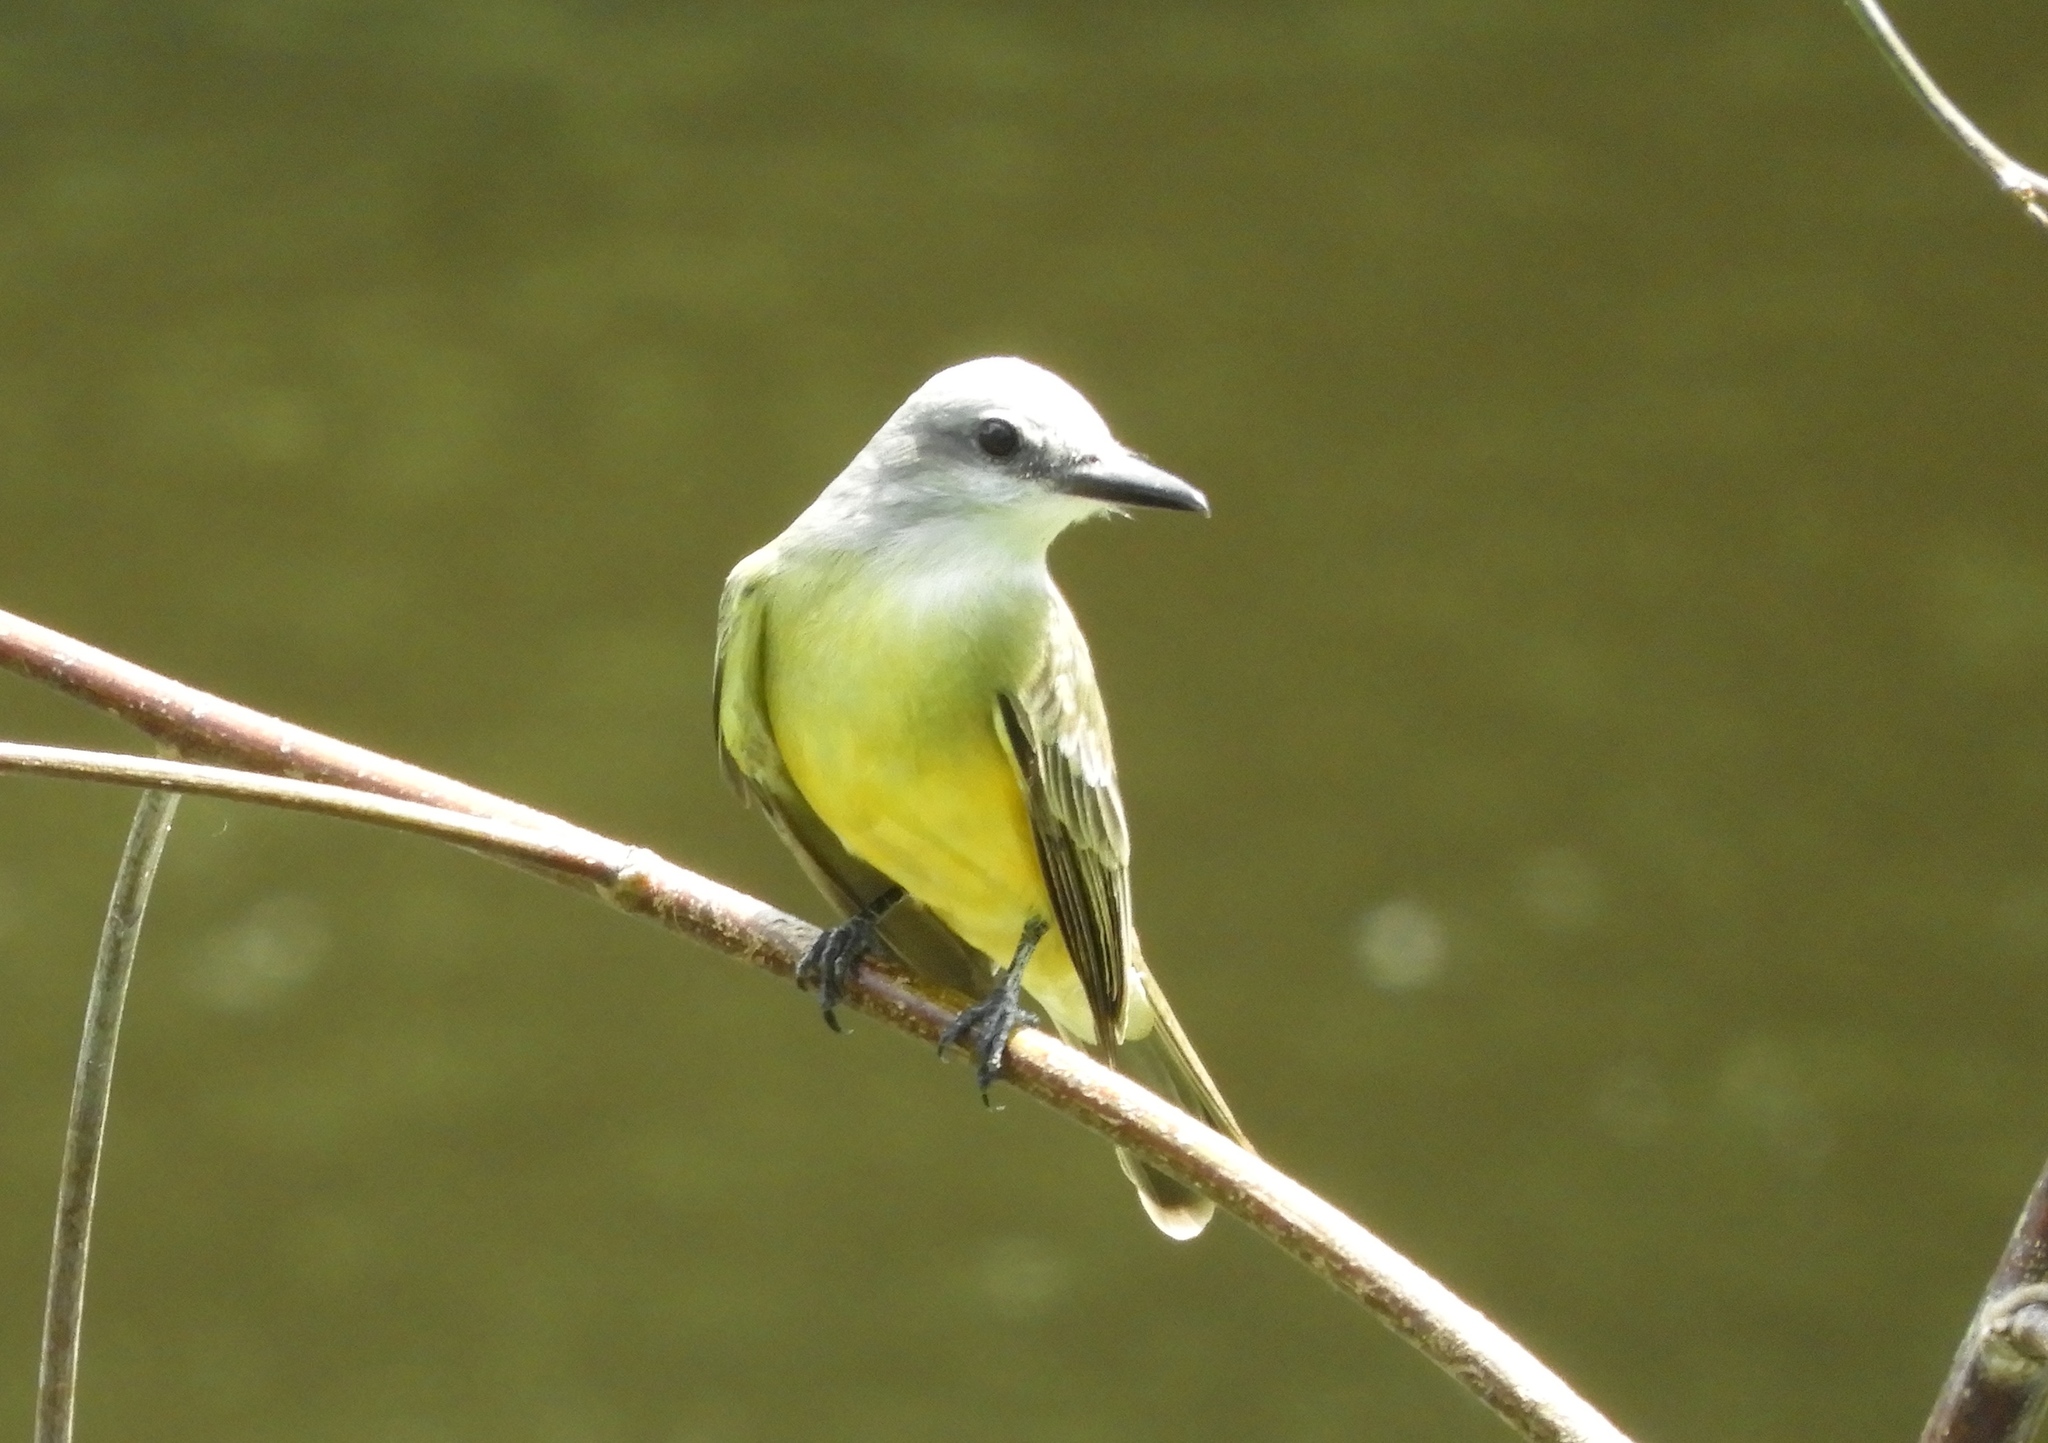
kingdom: Animalia
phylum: Chordata
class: Aves
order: Passeriformes
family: Tyrannidae
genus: Tyrannus
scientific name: Tyrannus melancholicus
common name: Tropical kingbird
